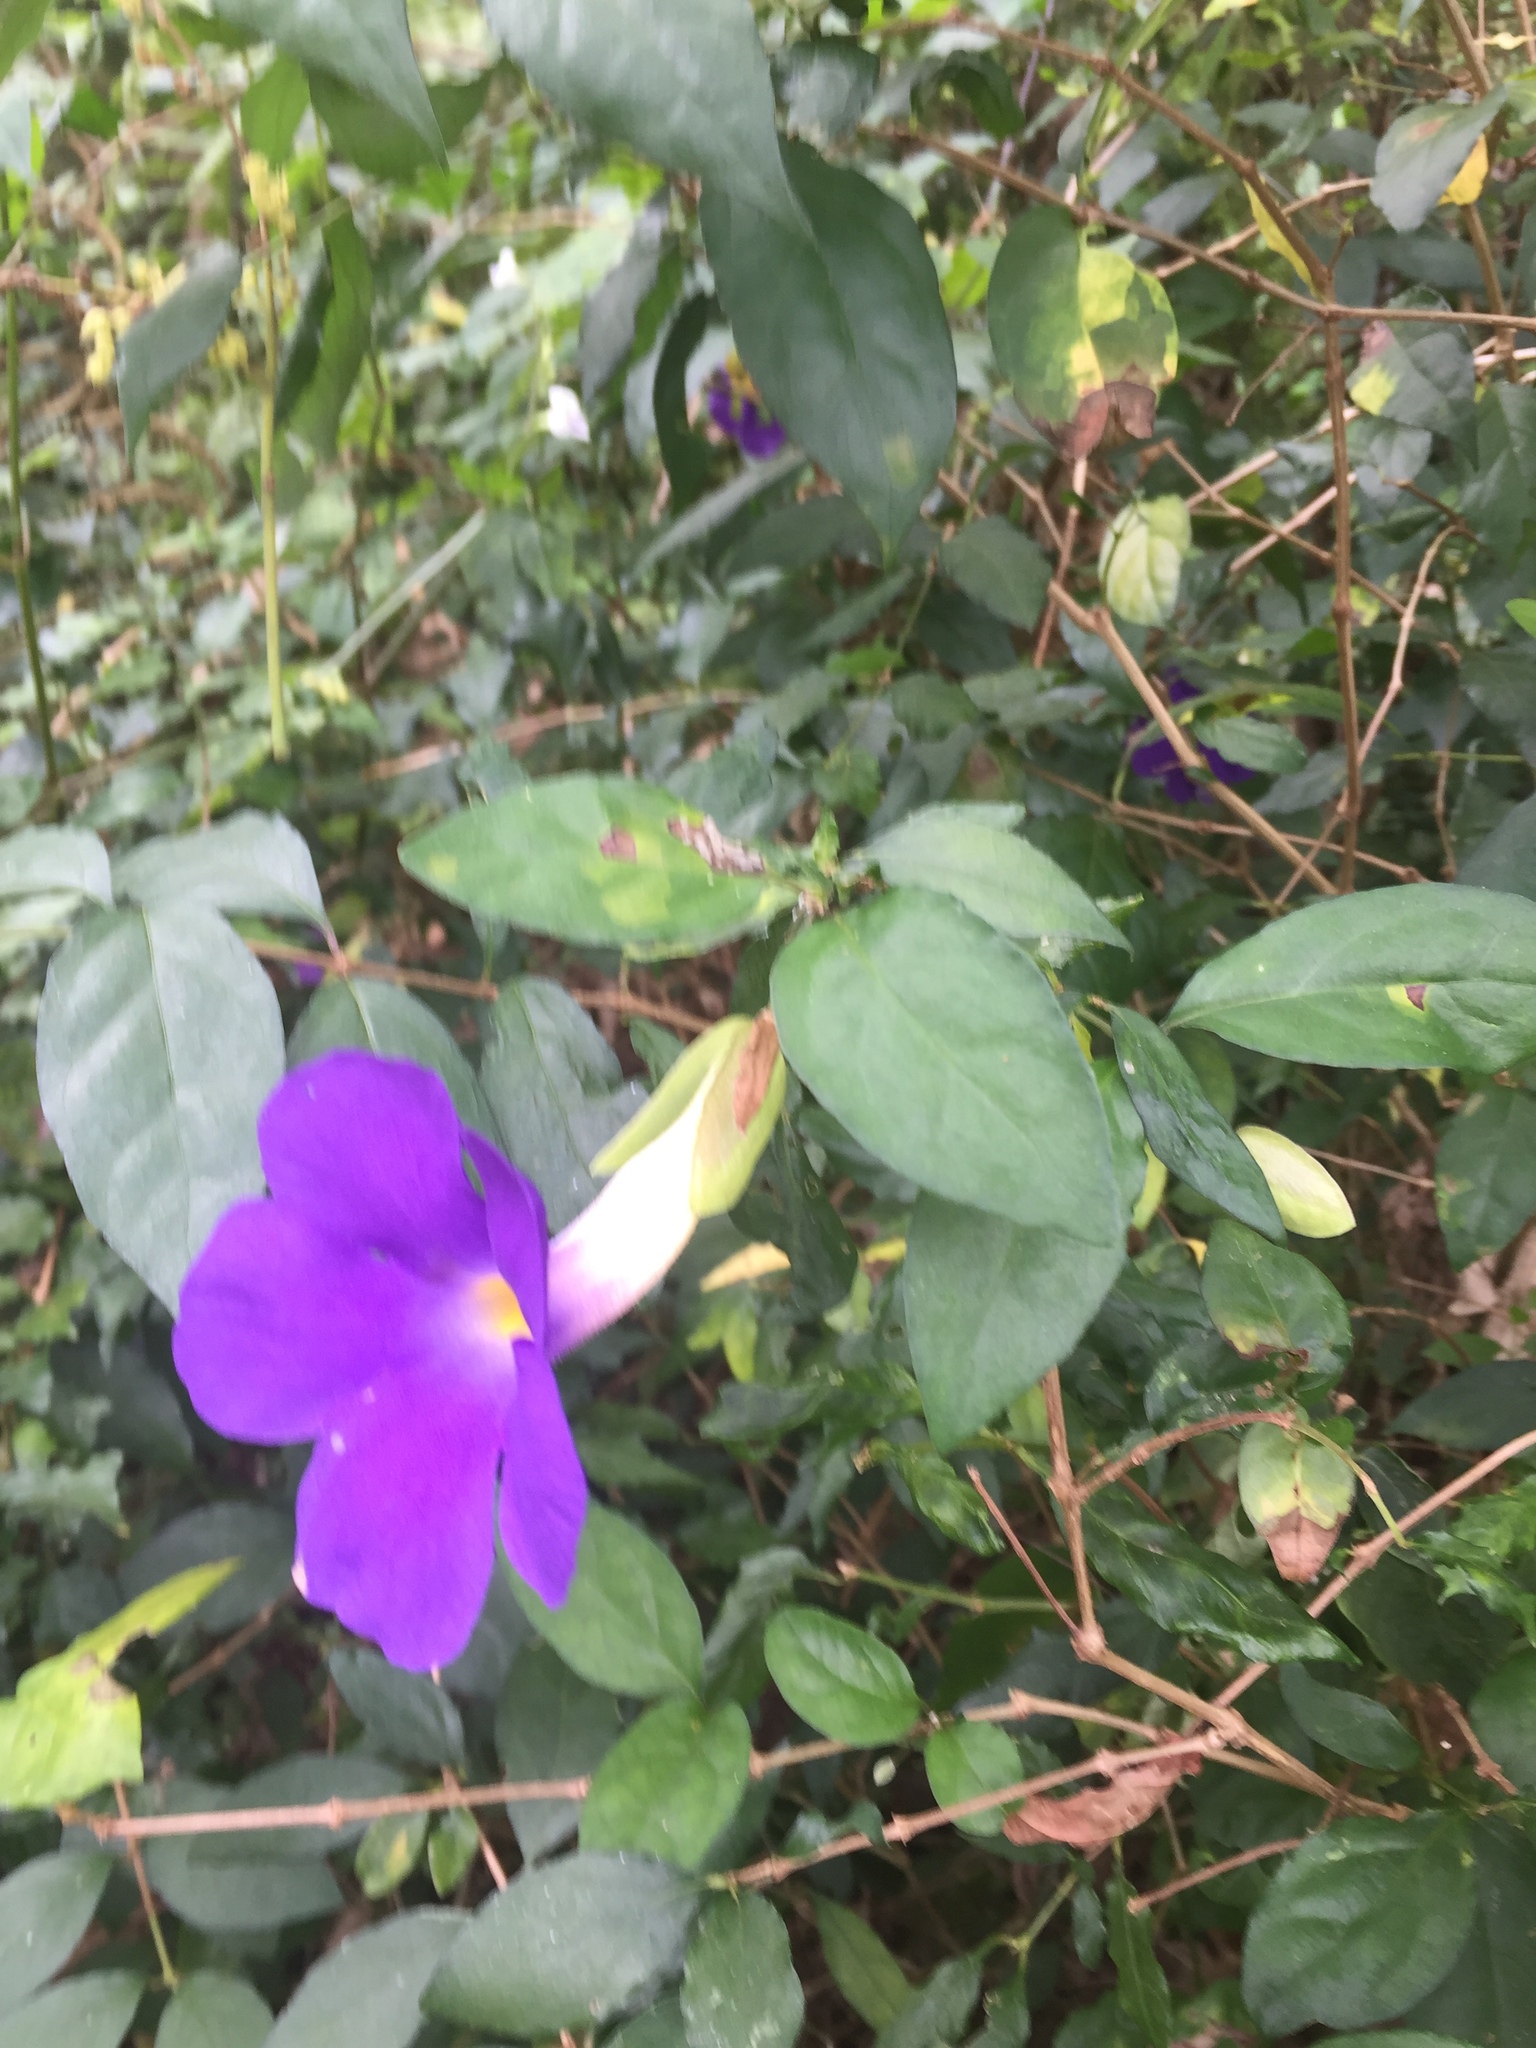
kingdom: Plantae
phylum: Tracheophyta
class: Magnoliopsida
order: Lamiales
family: Acanthaceae
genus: Thunbergia
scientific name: Thunbergia erecta
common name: Bush clockvine
